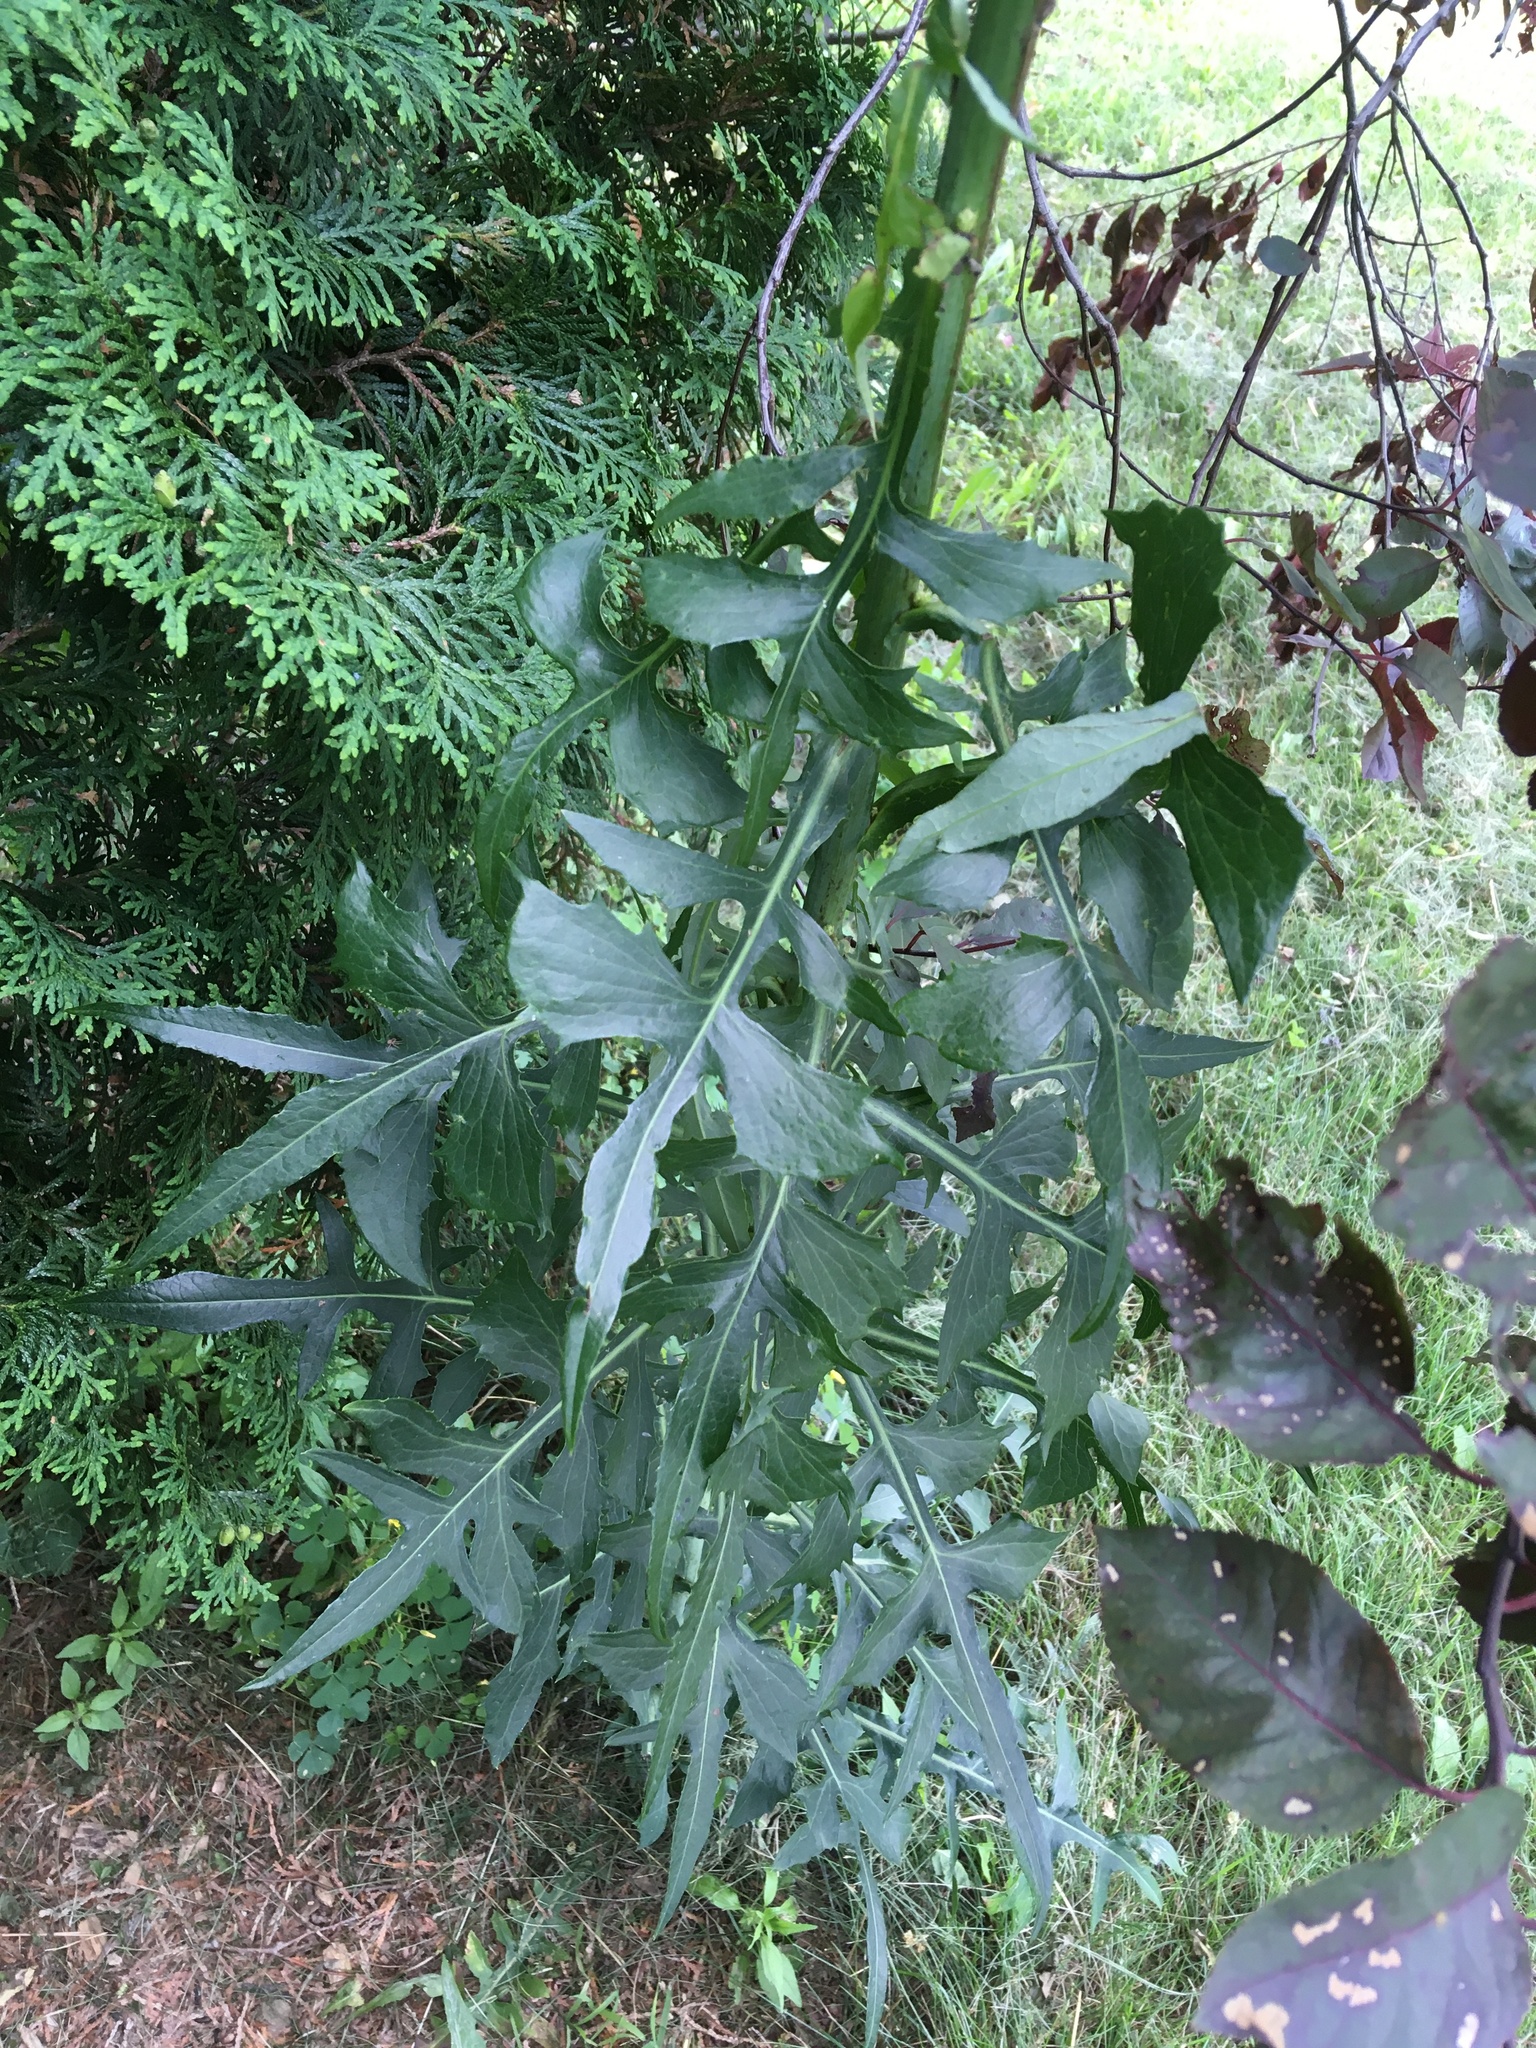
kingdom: Plantae
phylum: Tracheophyta
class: Magnoliopsida
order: Asterales
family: Asteraceae
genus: Lactuca
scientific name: Lactuca canadensis
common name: Canada lettuce
